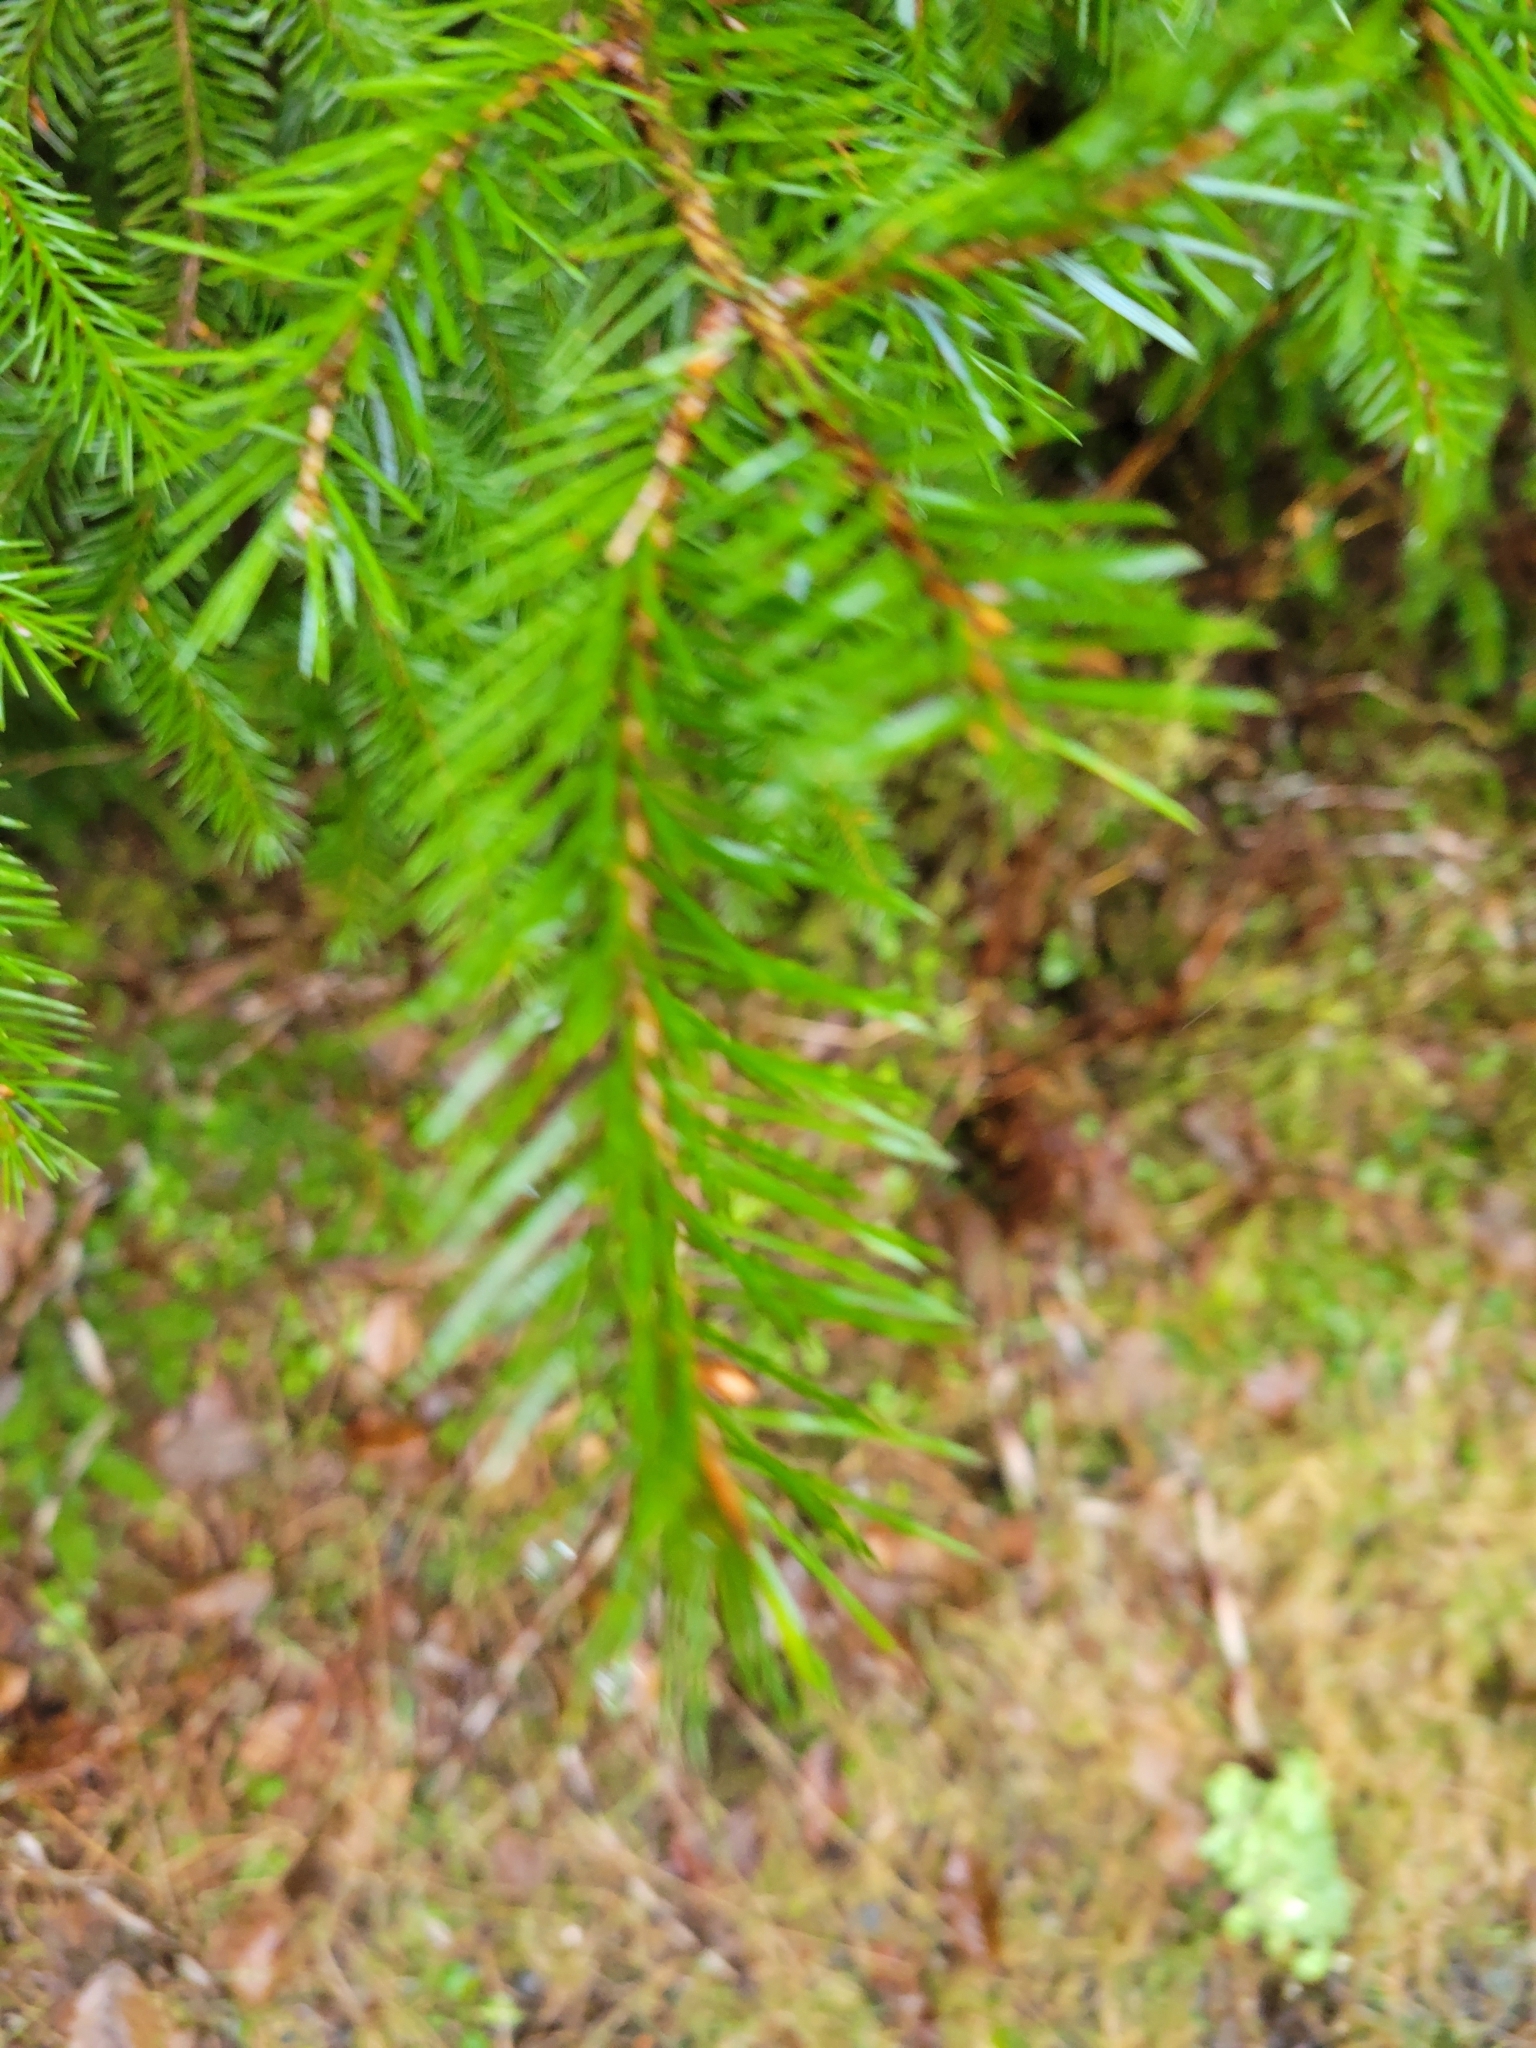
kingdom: Plantae
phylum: Tracheophyta
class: Pinopsida
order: Pinales
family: Pinaceae
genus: Pseudotsuga
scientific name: Pseudotsuga menziesii
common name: Douglas fir
